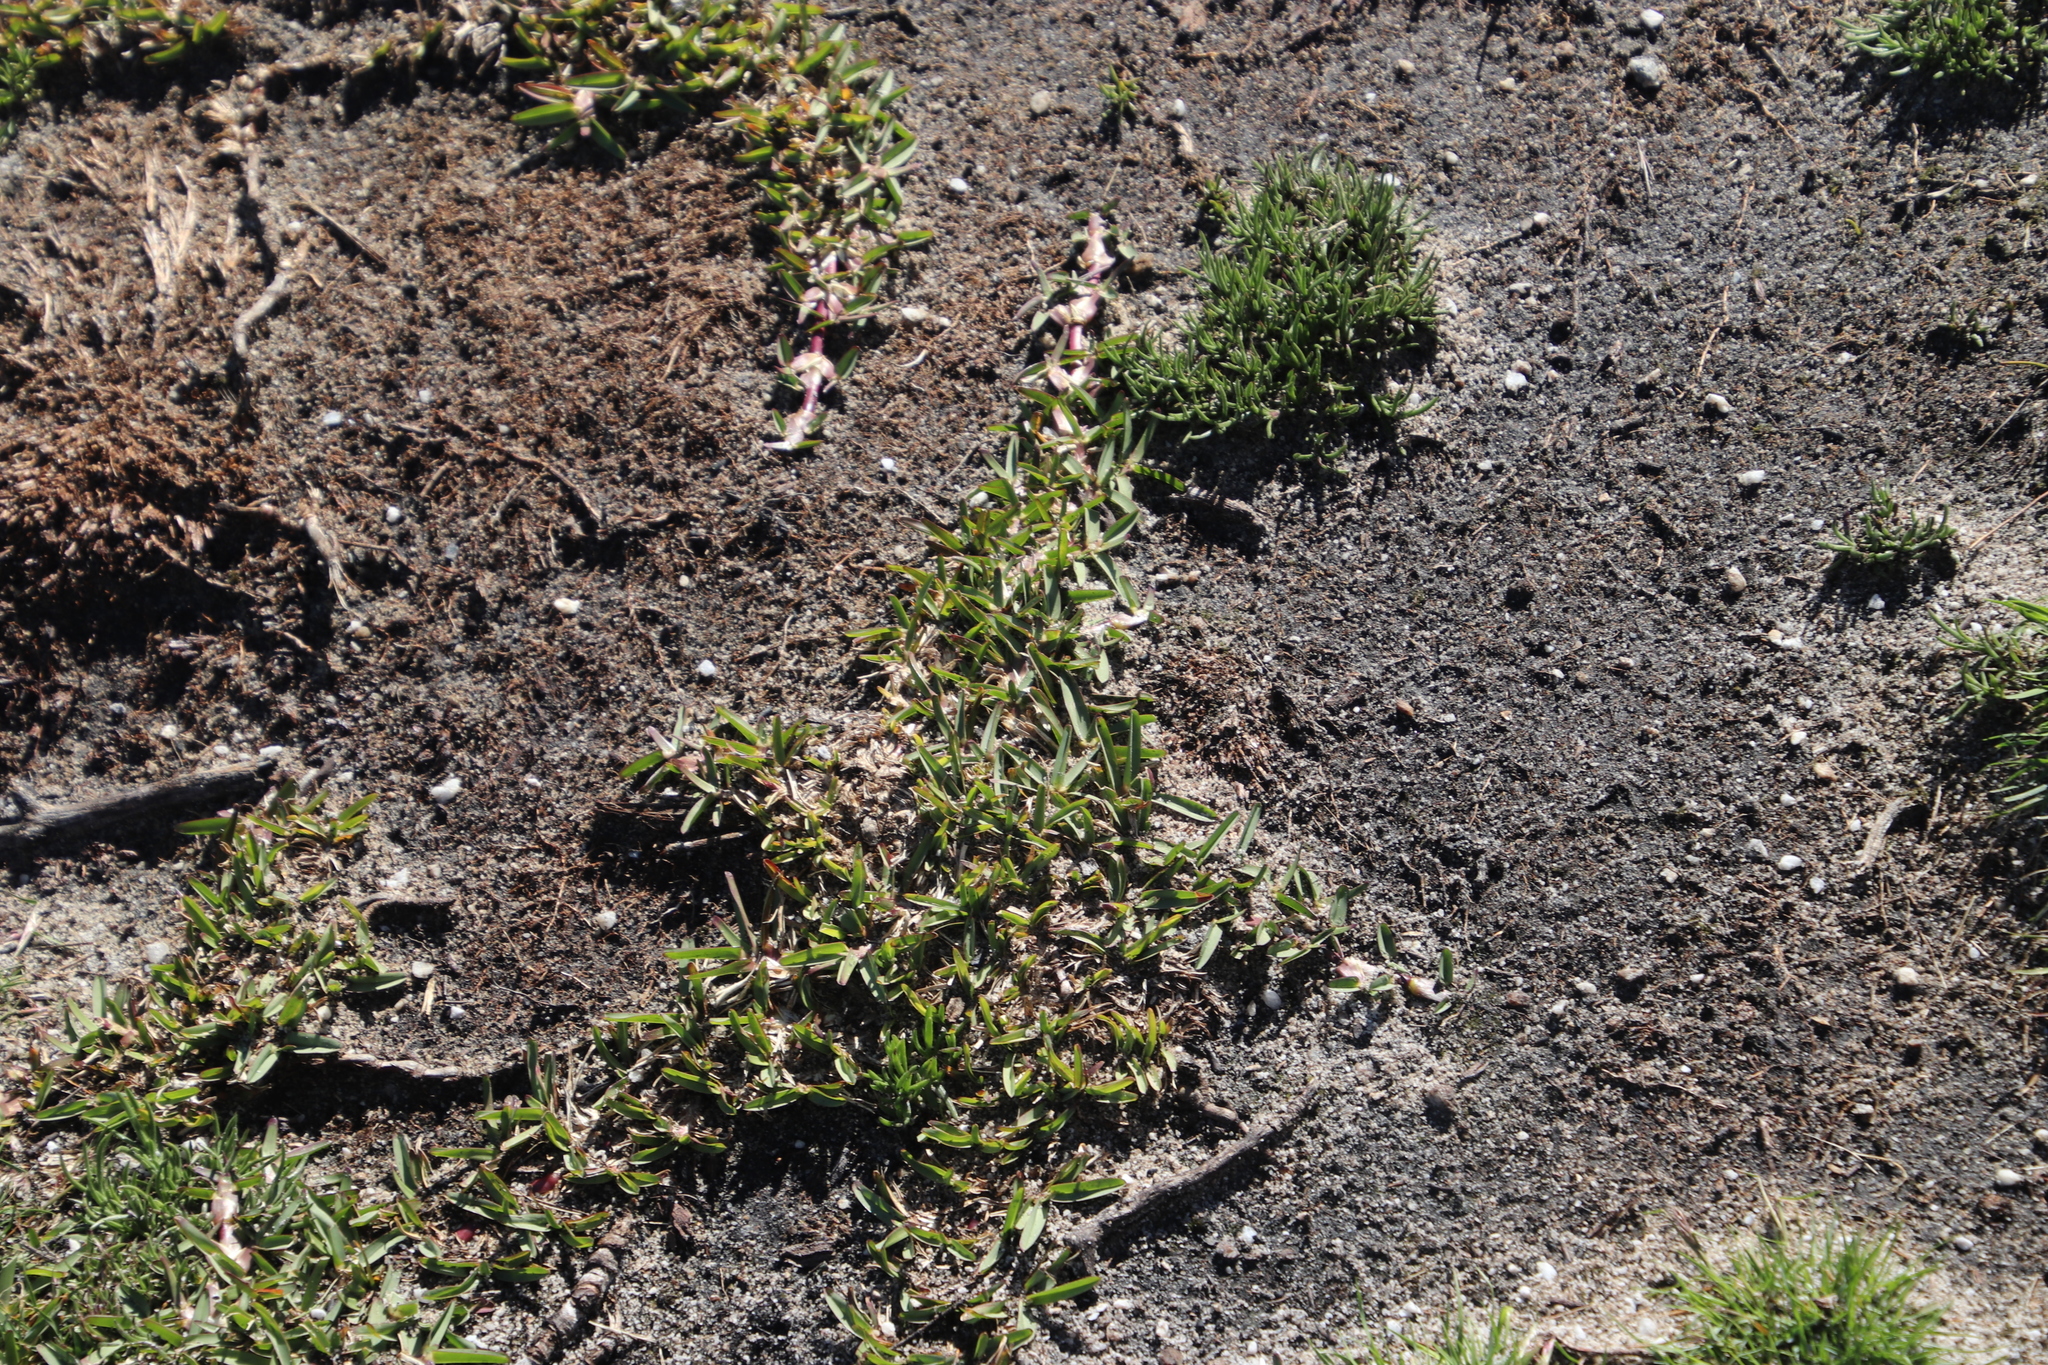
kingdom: Plantae
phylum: Tracheophyta
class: Liliopsida
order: Poales
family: Poaceae
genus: Stenotaphrum
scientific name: Stenotaphrum secundatum
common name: St. augustine grass
